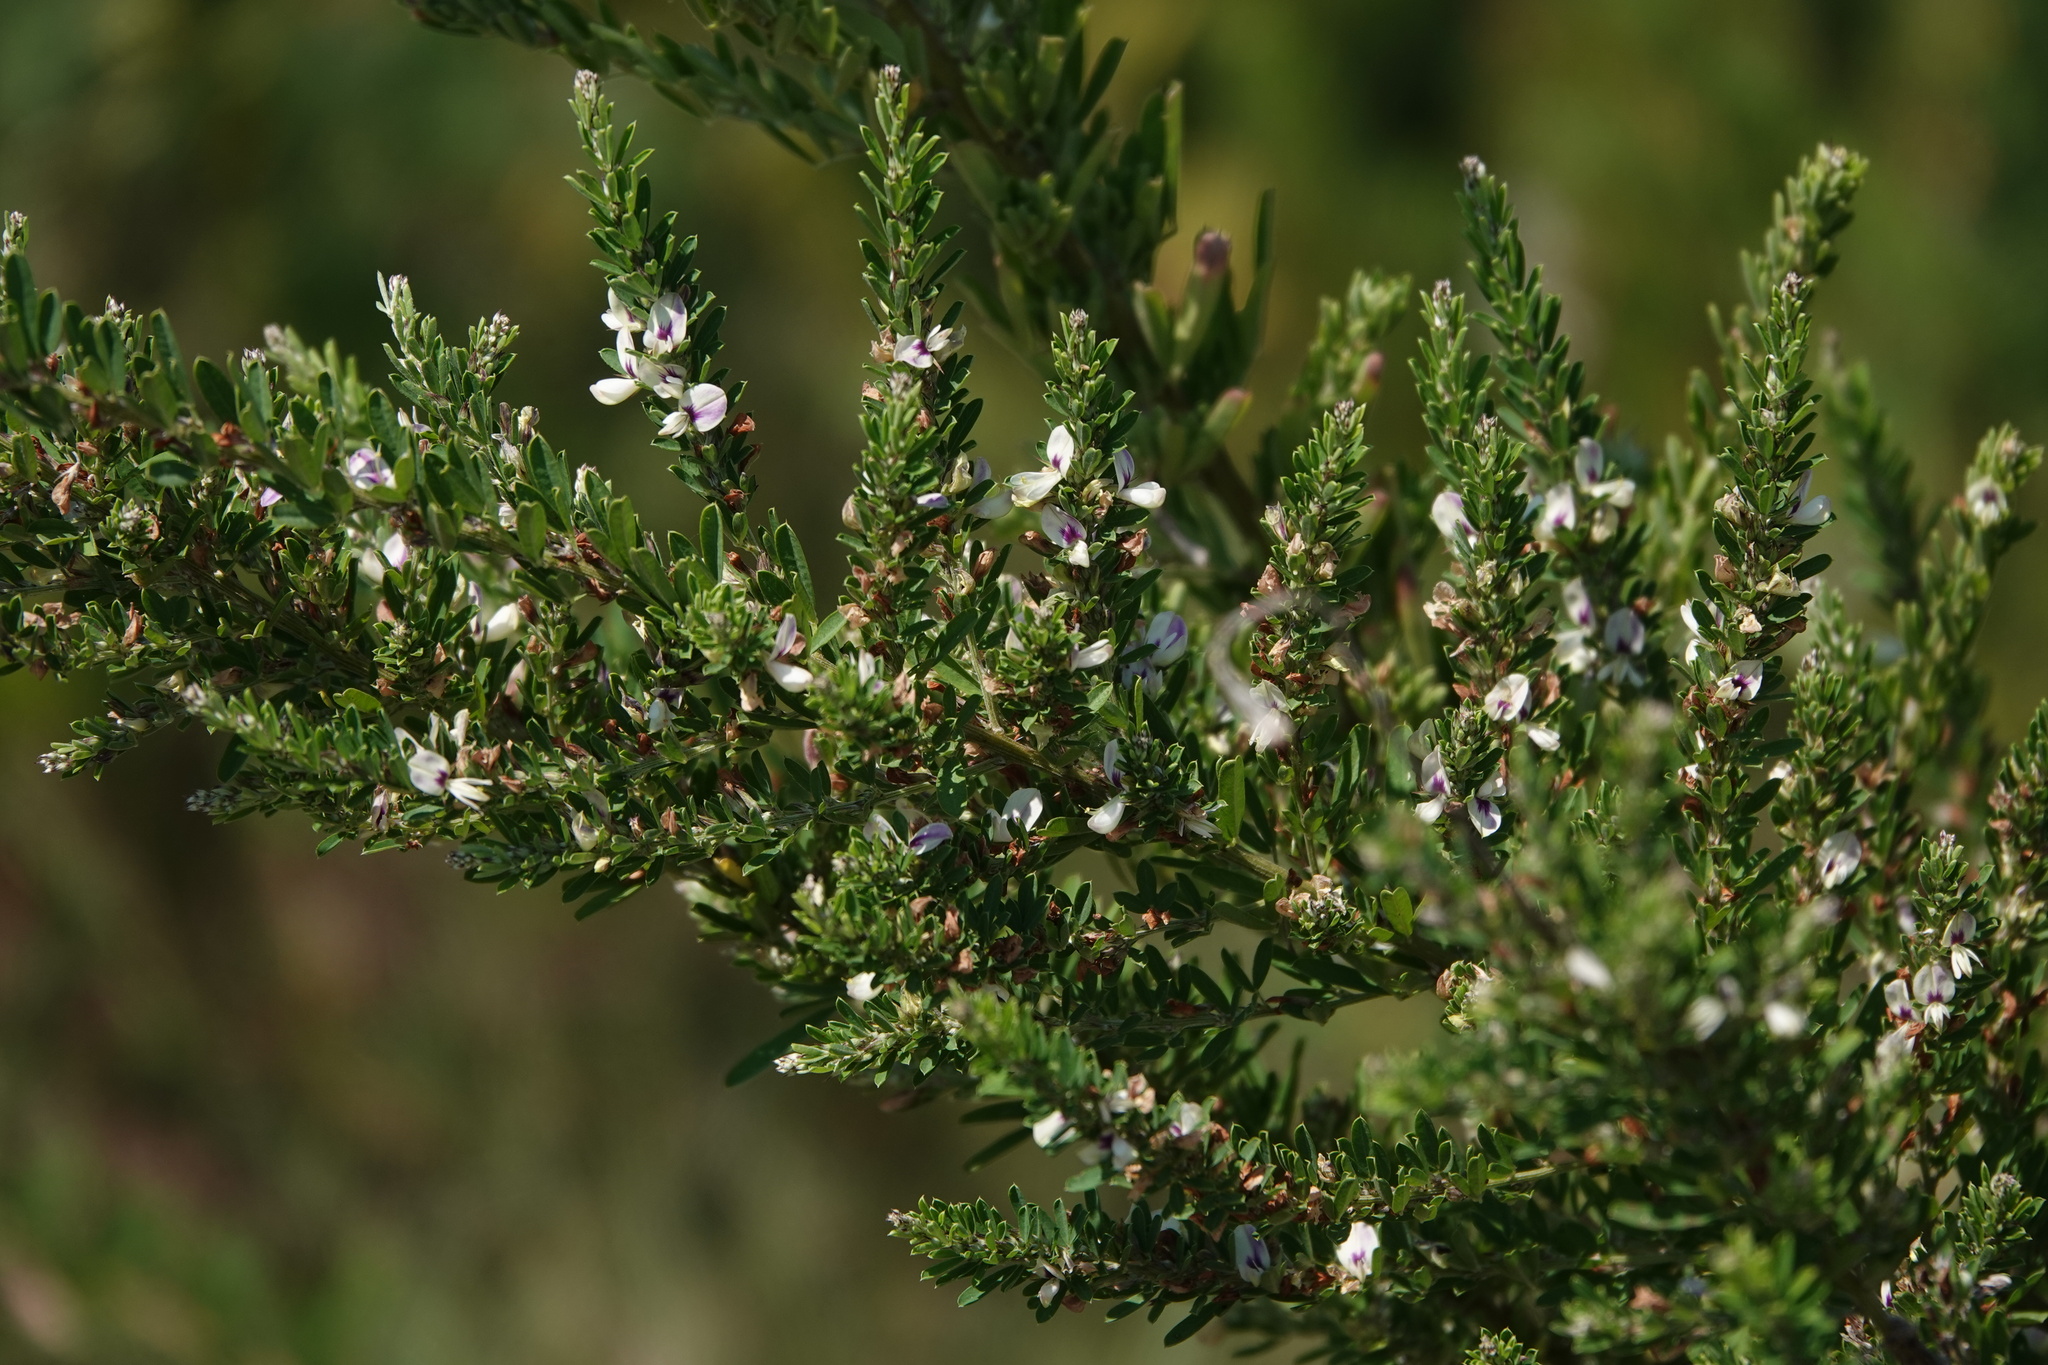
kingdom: Plantae
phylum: Tracheophyta
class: Magnoliopsida
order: Fabales
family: Fabaceae
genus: Lespedeza
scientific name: Lespedeza cuneata
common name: Chinese bush-clover
